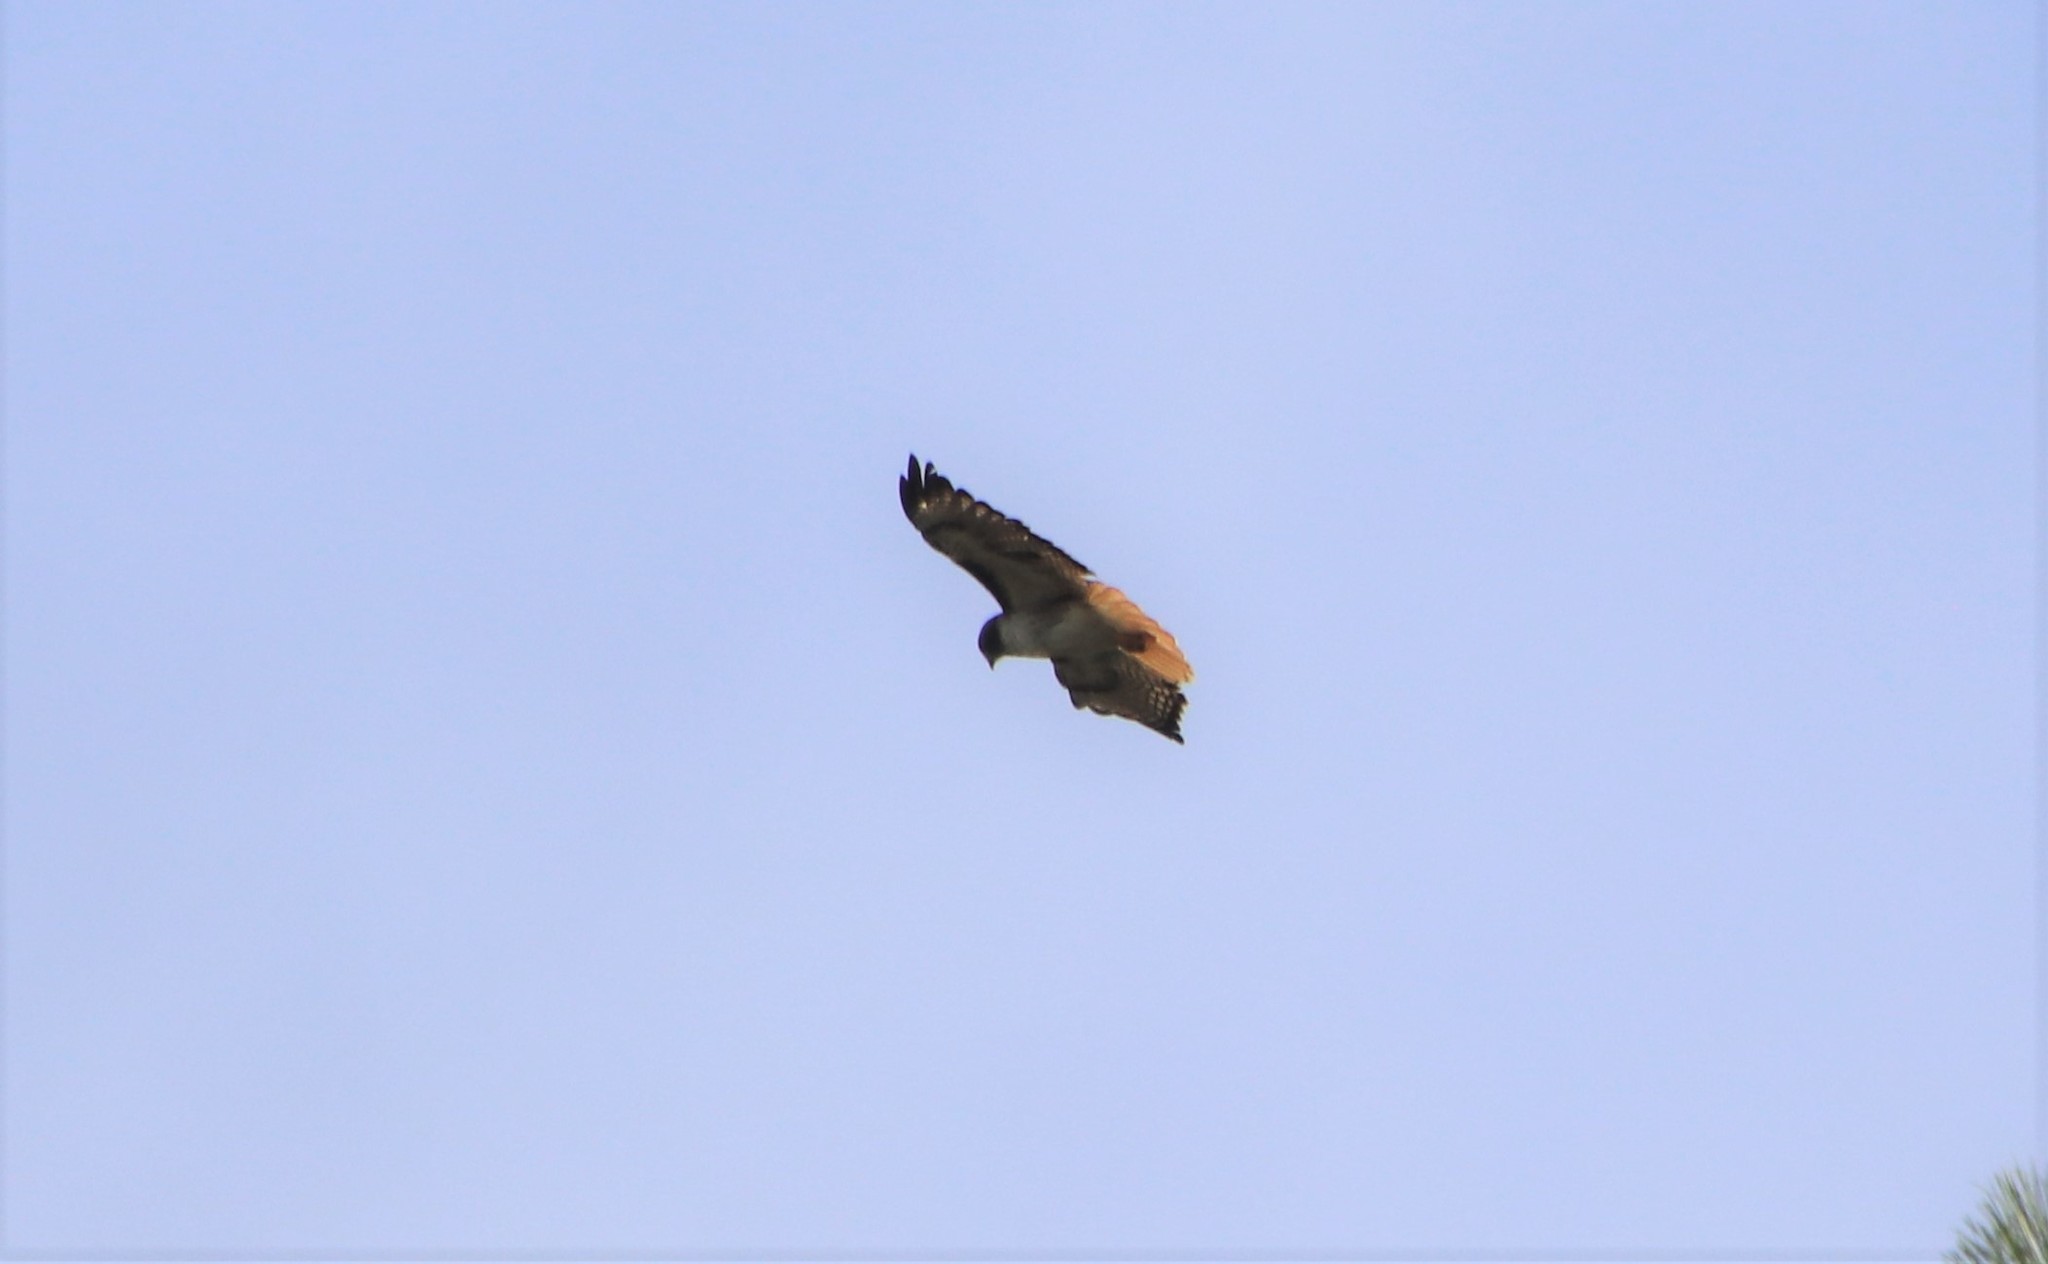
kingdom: Animalia
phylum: Chordata
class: Aves
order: Accipitriformes
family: Accipitridae
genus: Buteo
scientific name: Buteo jamaicensis
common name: Red-tailed hawk
